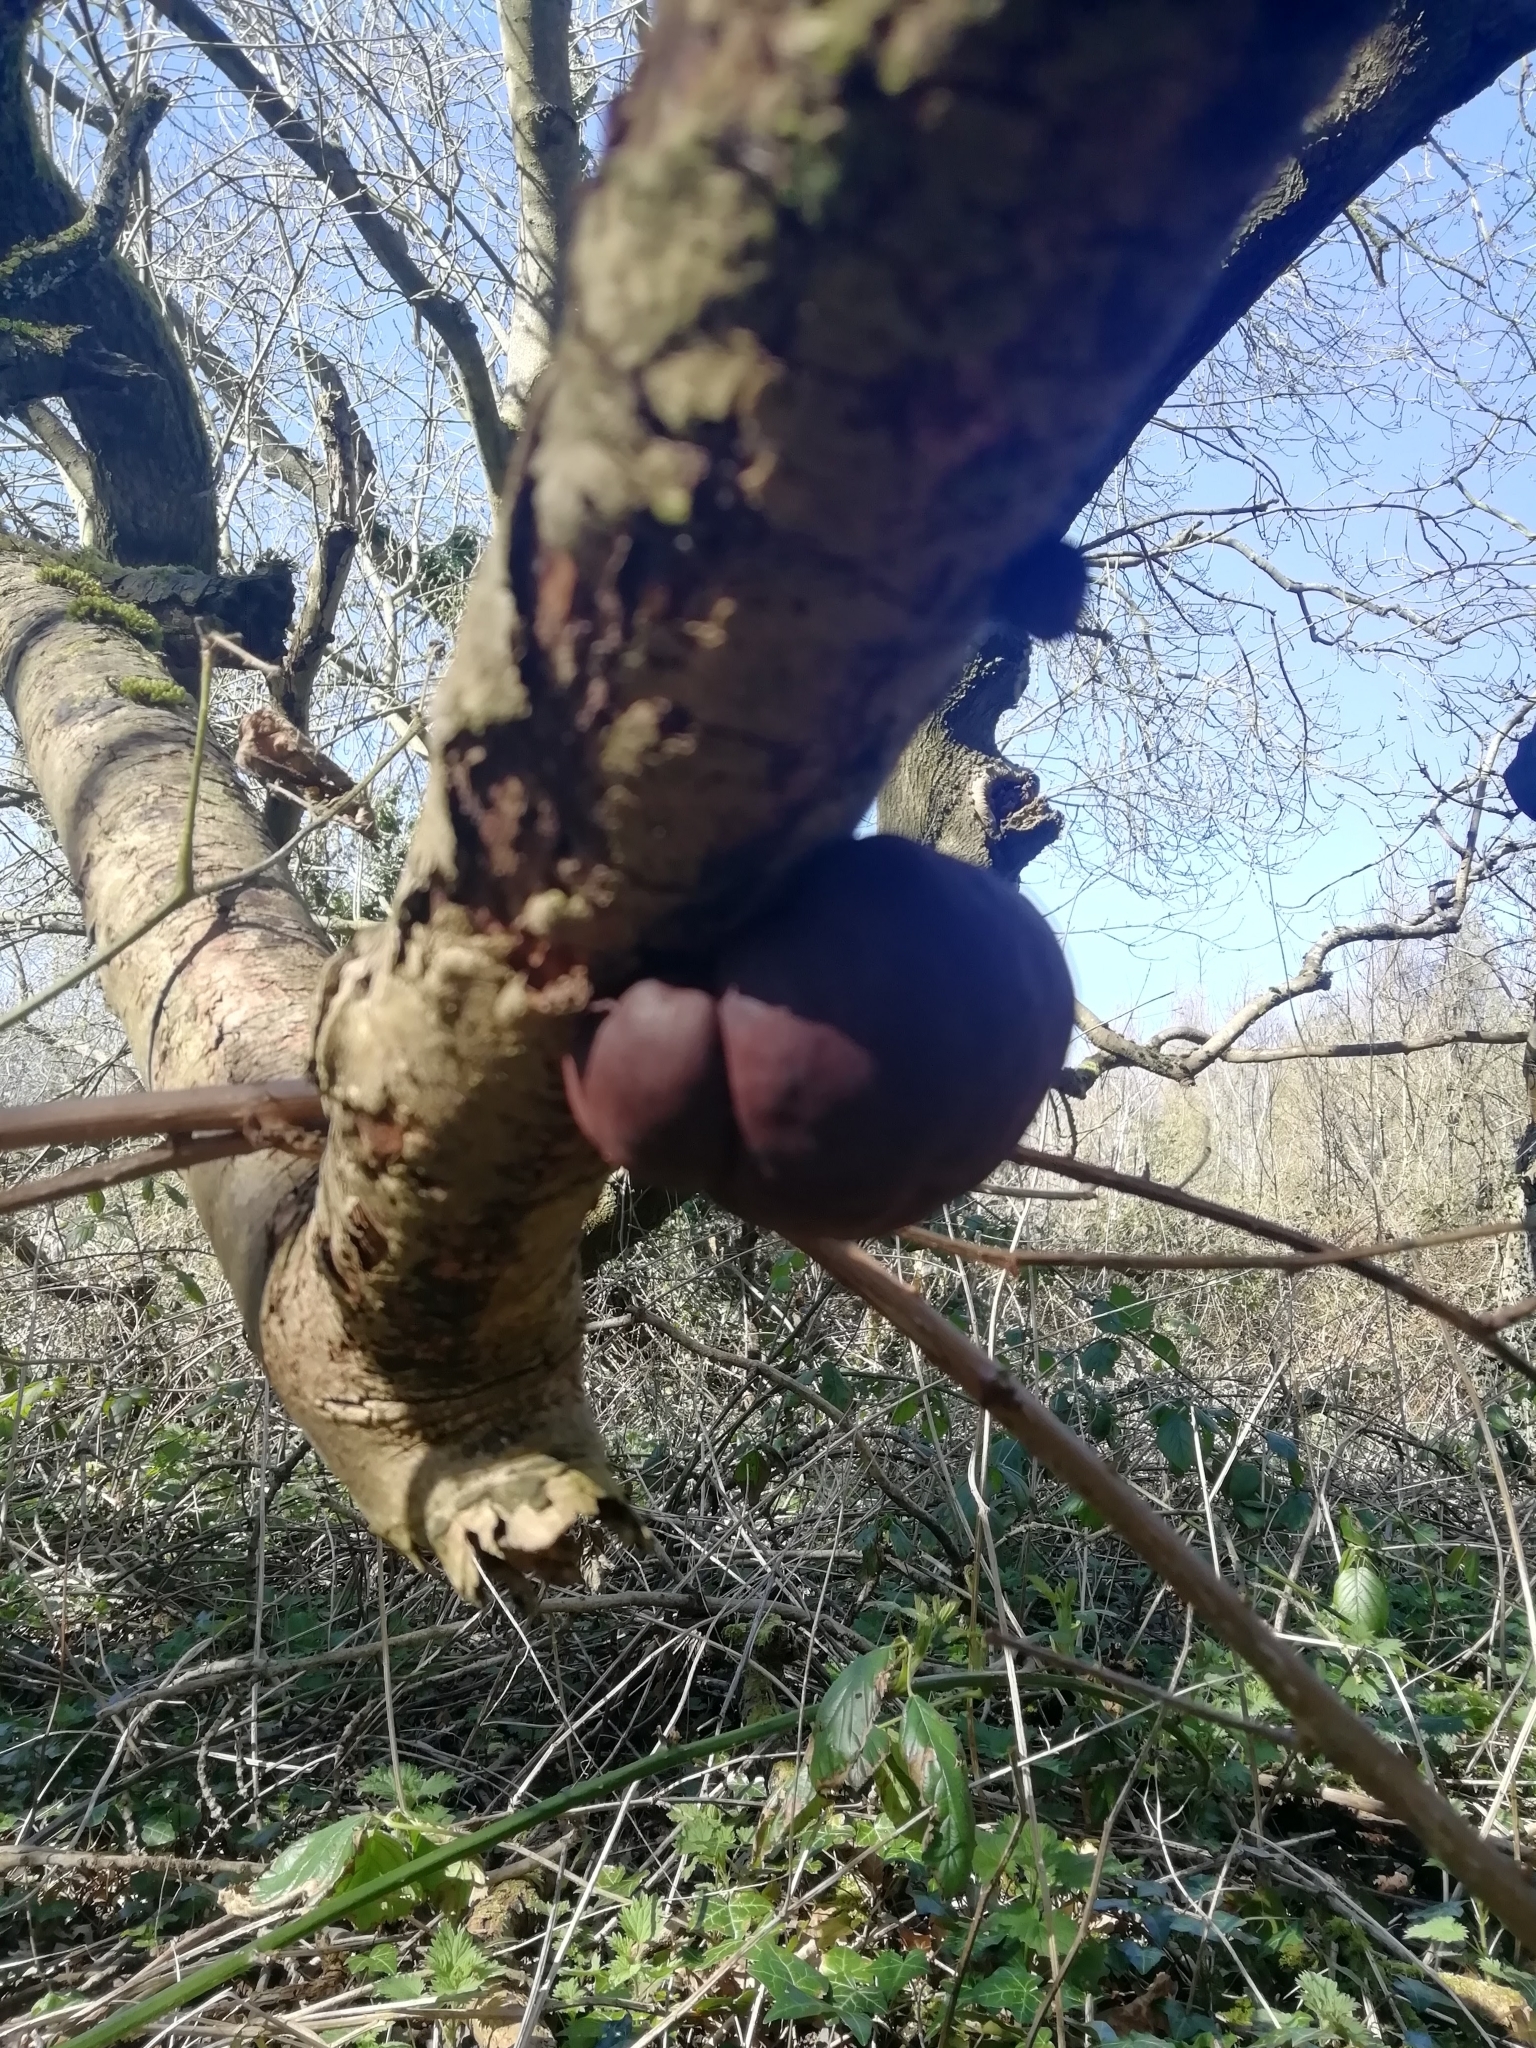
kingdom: Fungi
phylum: Ascomycota
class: Sordariomycetes
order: Xylariales
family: Hypoxylaceae
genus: Daldinia
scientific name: Daldinia concentrica
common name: Cramp balls
